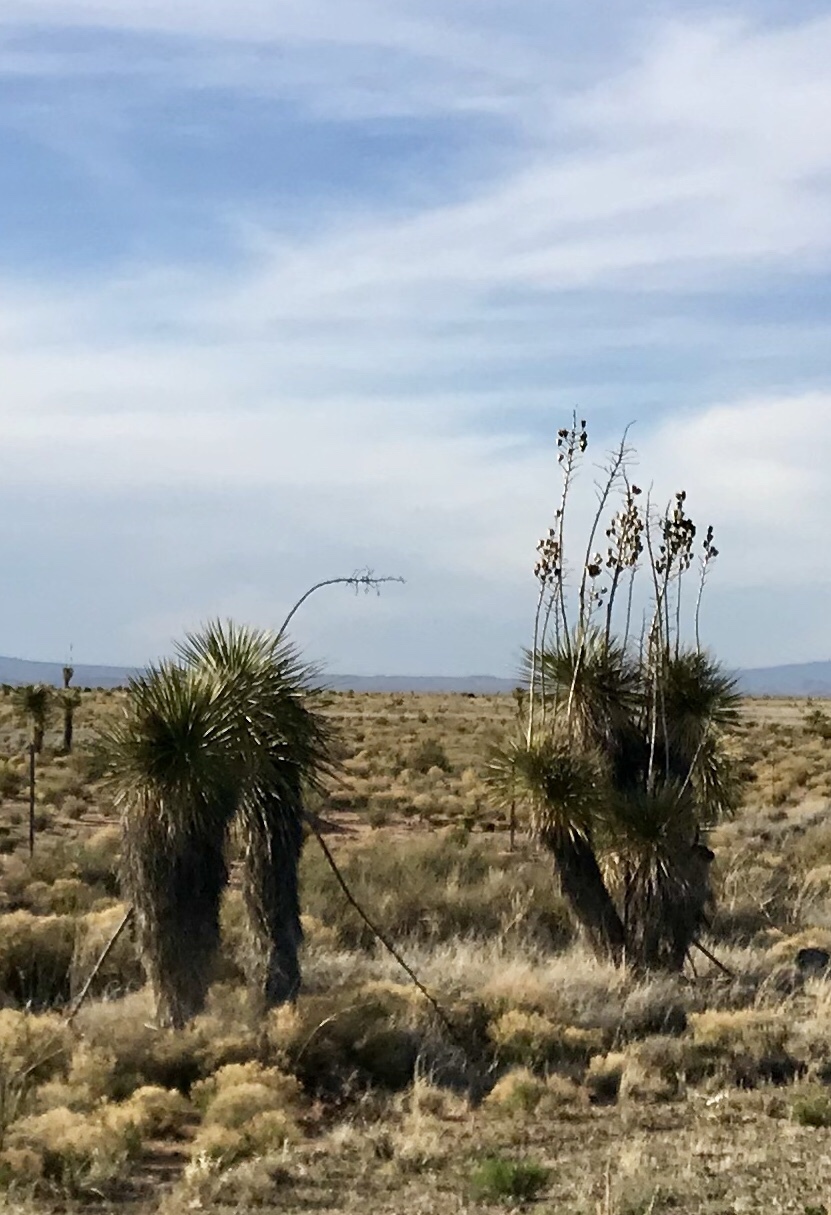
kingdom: Plantae
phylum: Tracheophyta
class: Liliopsida
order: Asparagales
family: Asparagaceae
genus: Yucca
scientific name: Yucca elata
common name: Palmella
